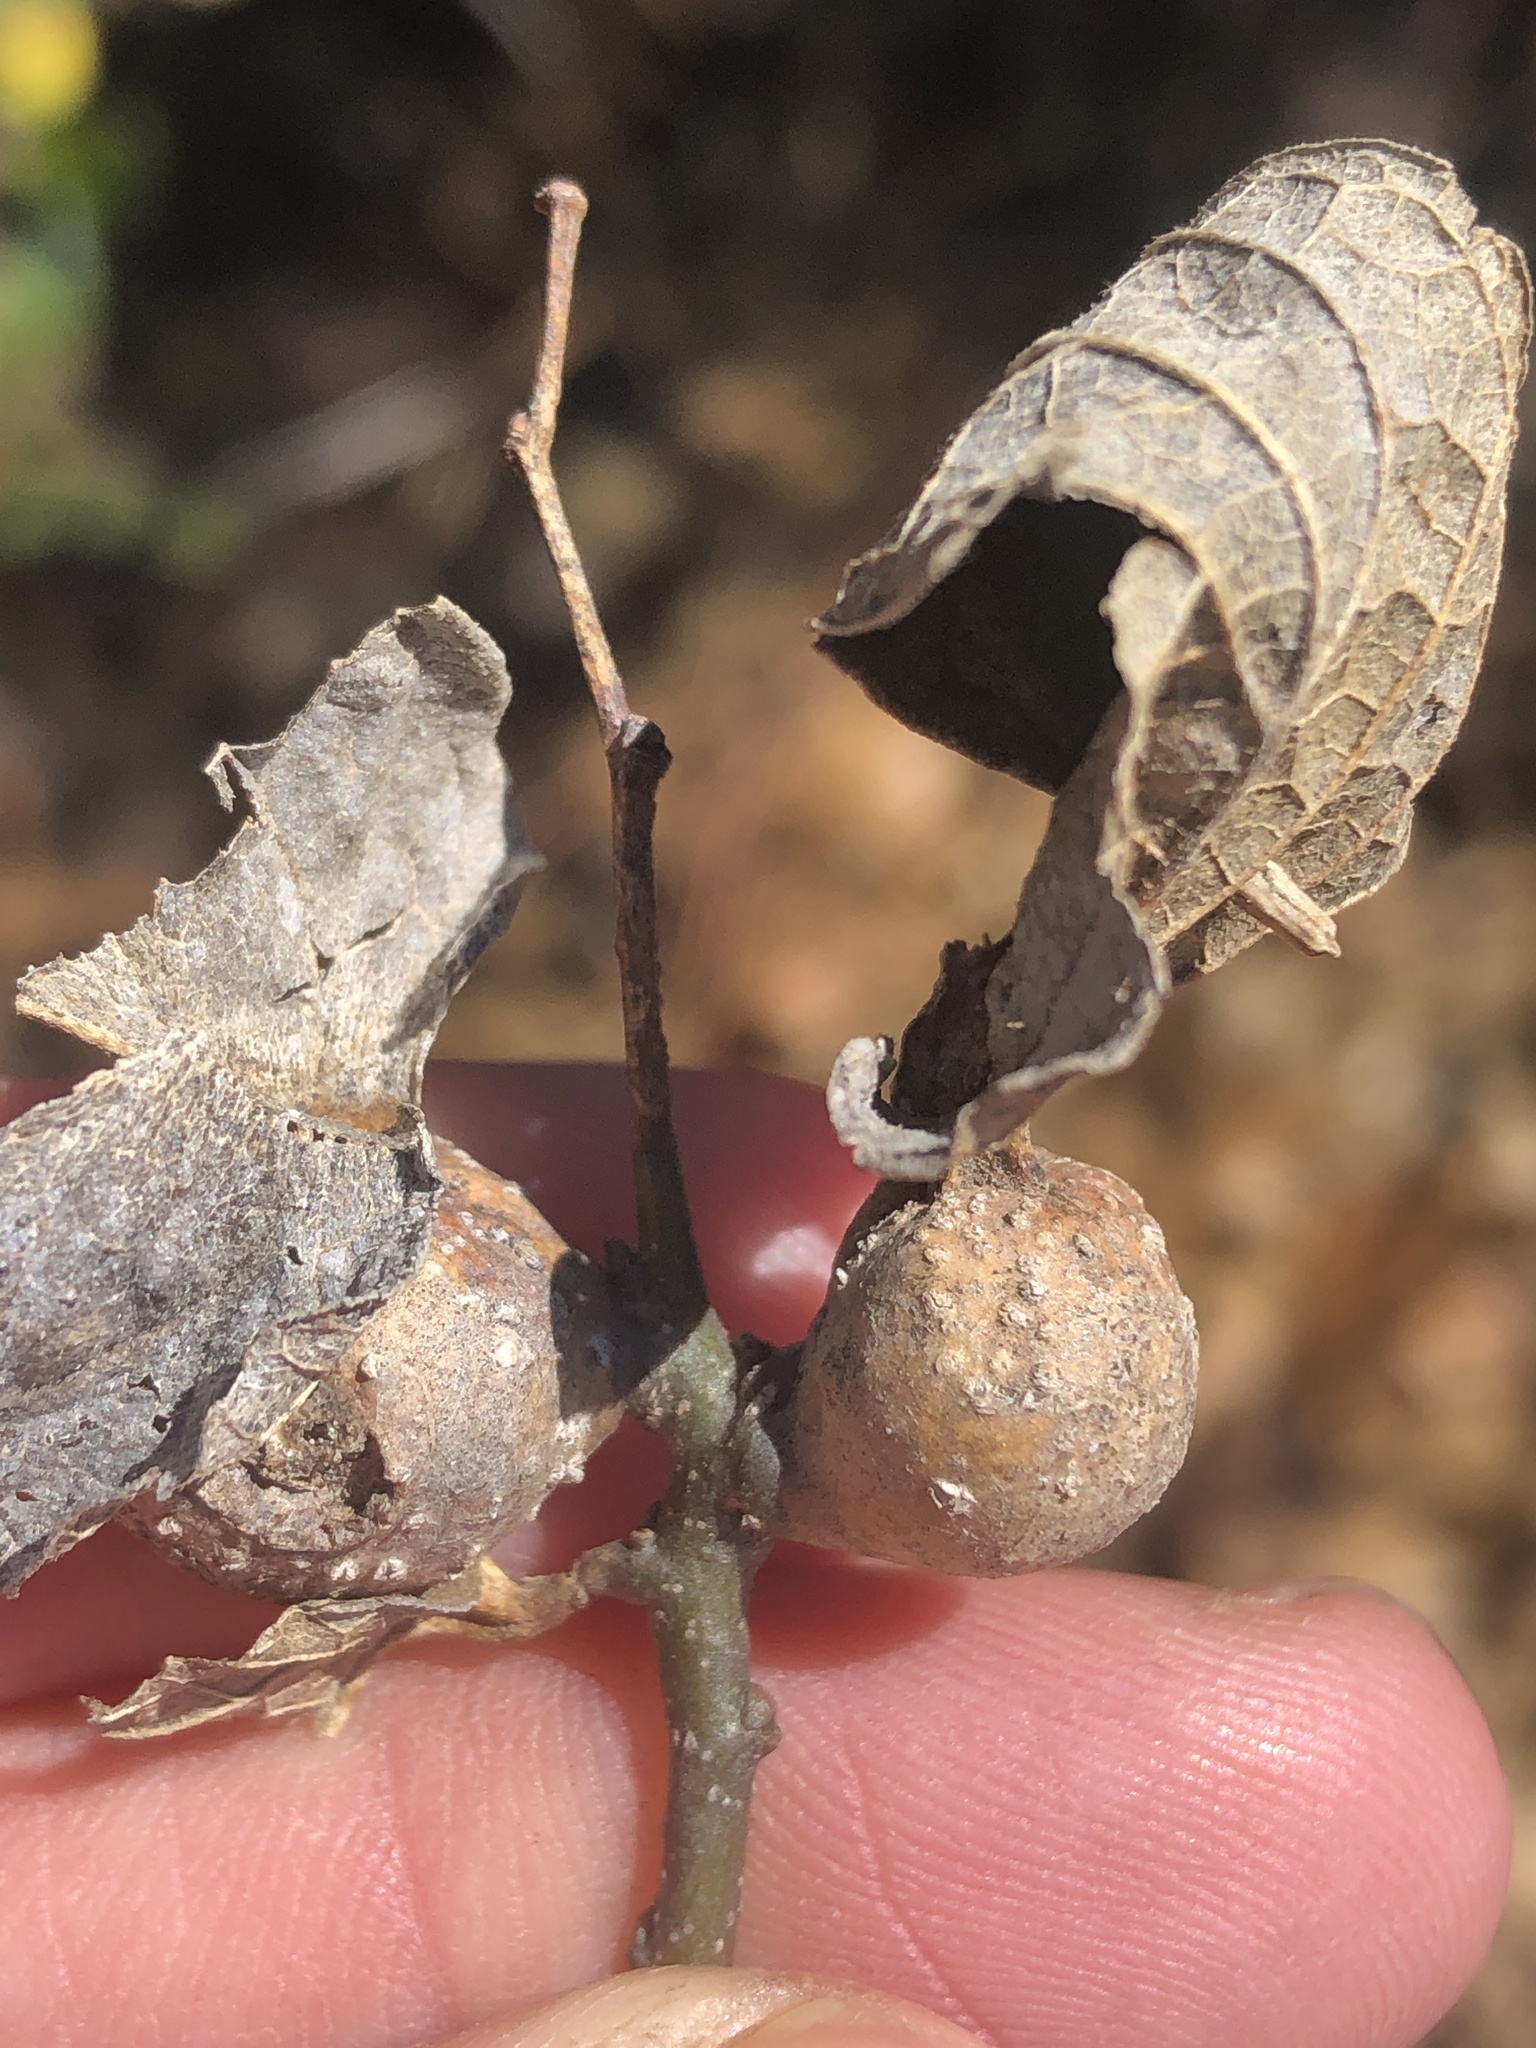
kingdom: Animalia
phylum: Arthropoda
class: Insecta
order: Hemiptera
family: Aphalaridae
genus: Pachypsylla
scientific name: Pachypsylla venusta
